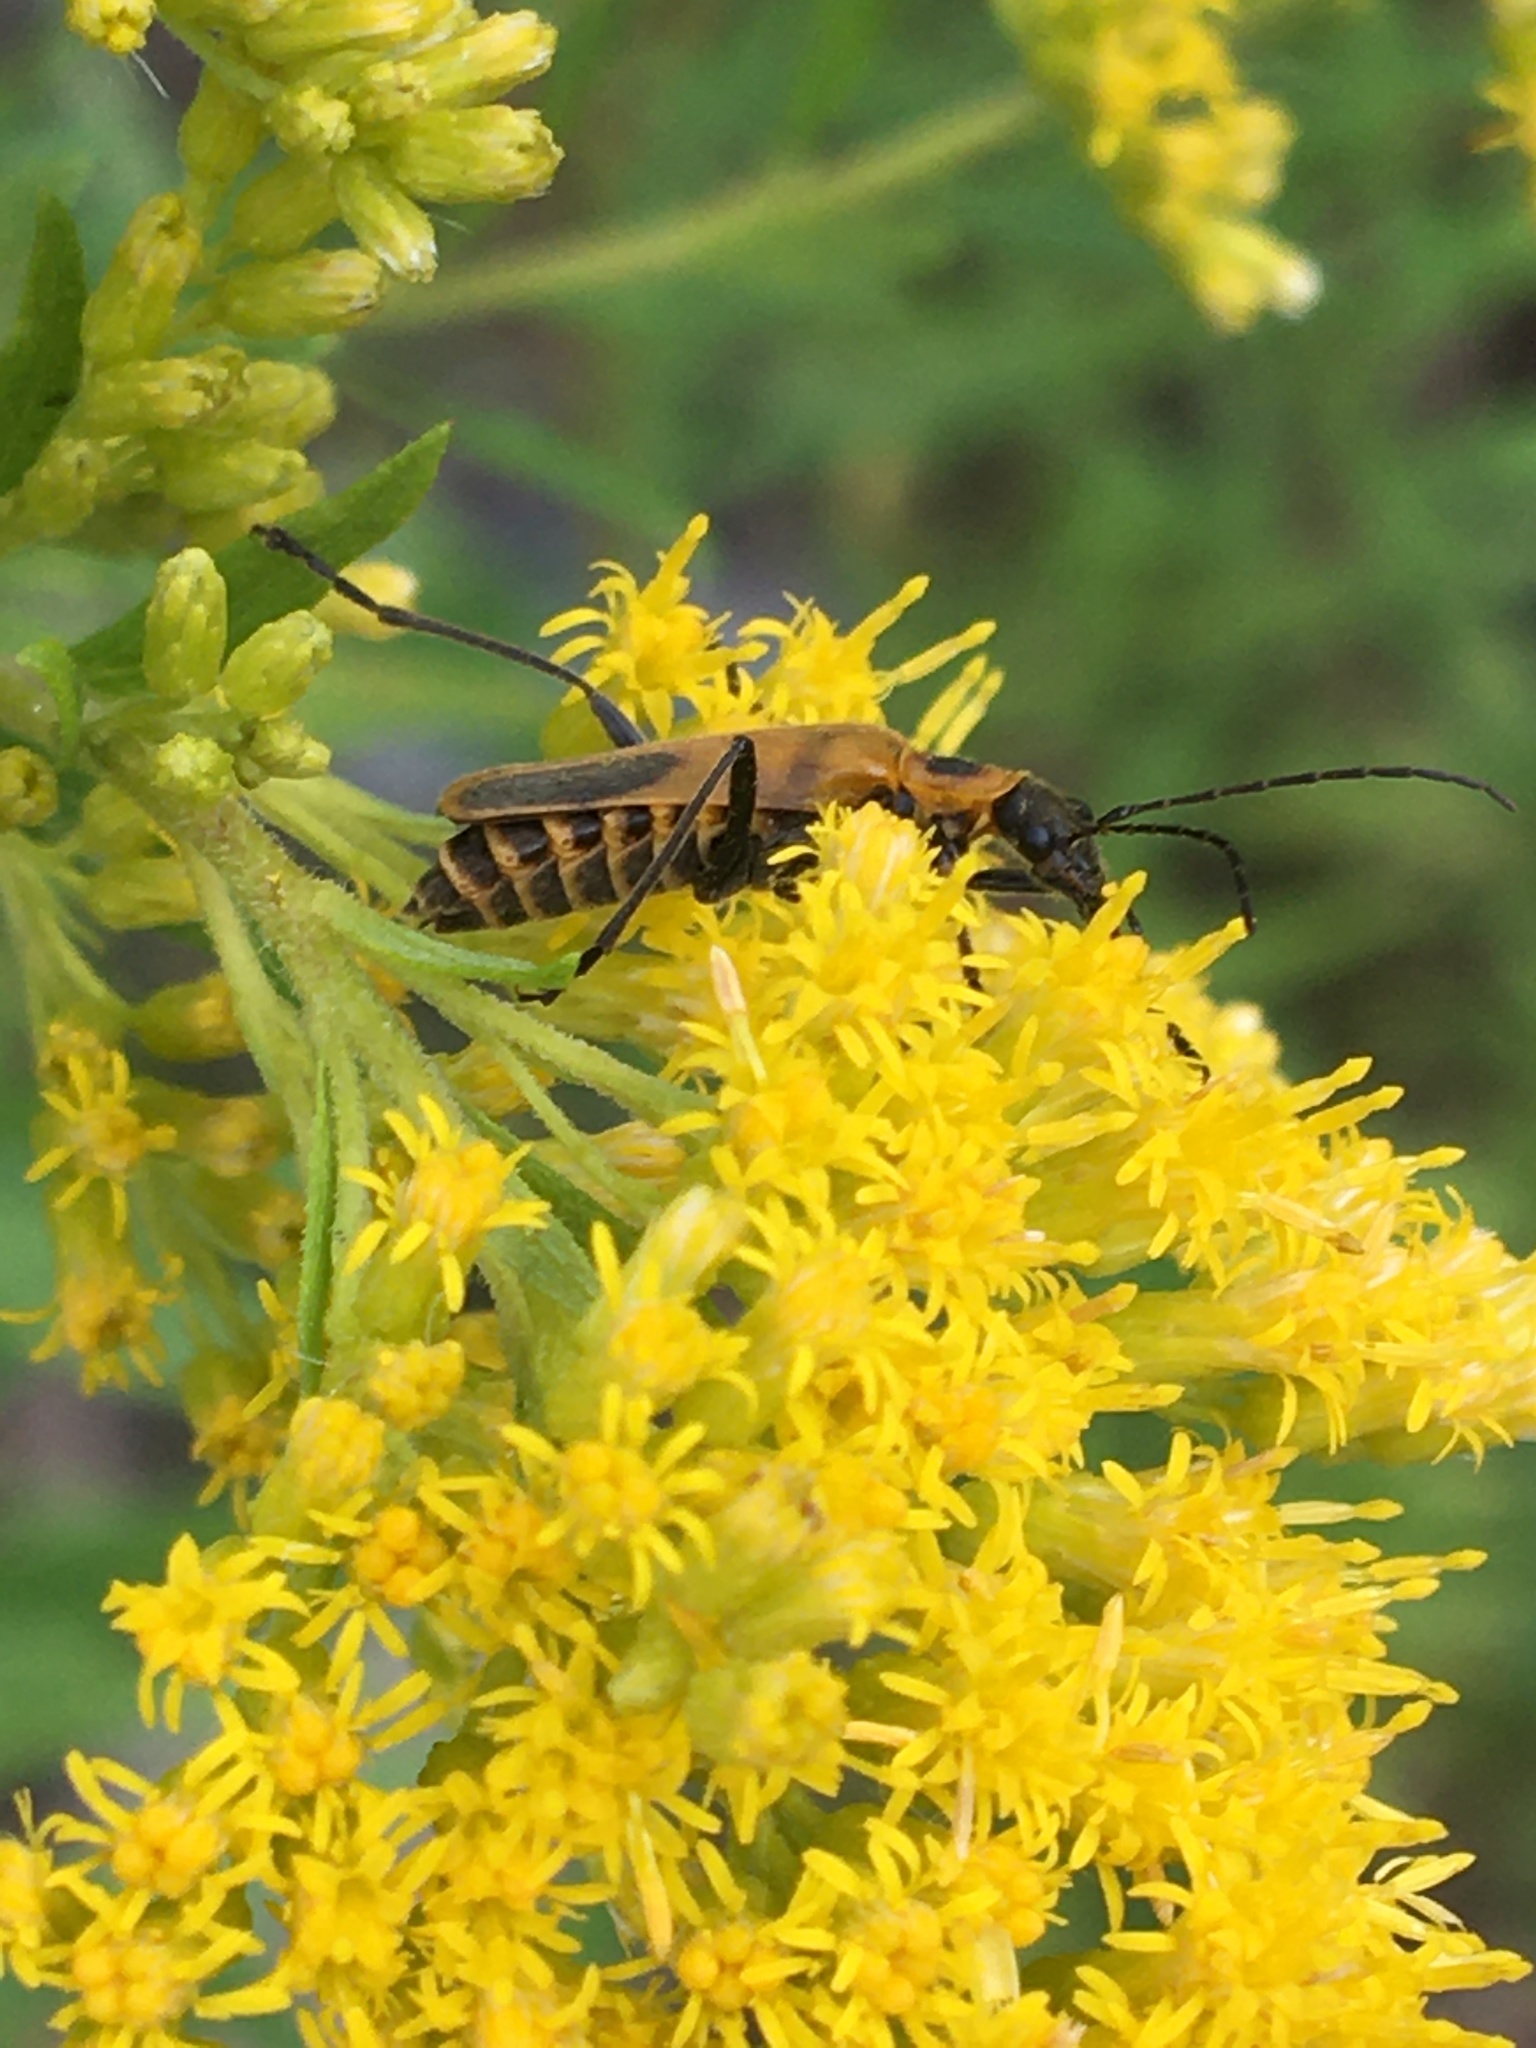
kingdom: Animalia
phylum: Arthropoda
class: Insecta
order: Coleoptera
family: Cantharidae
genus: Chauliognathus
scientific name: Chauliognathus pensylvanicus
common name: Goldenrod soldier beetle
